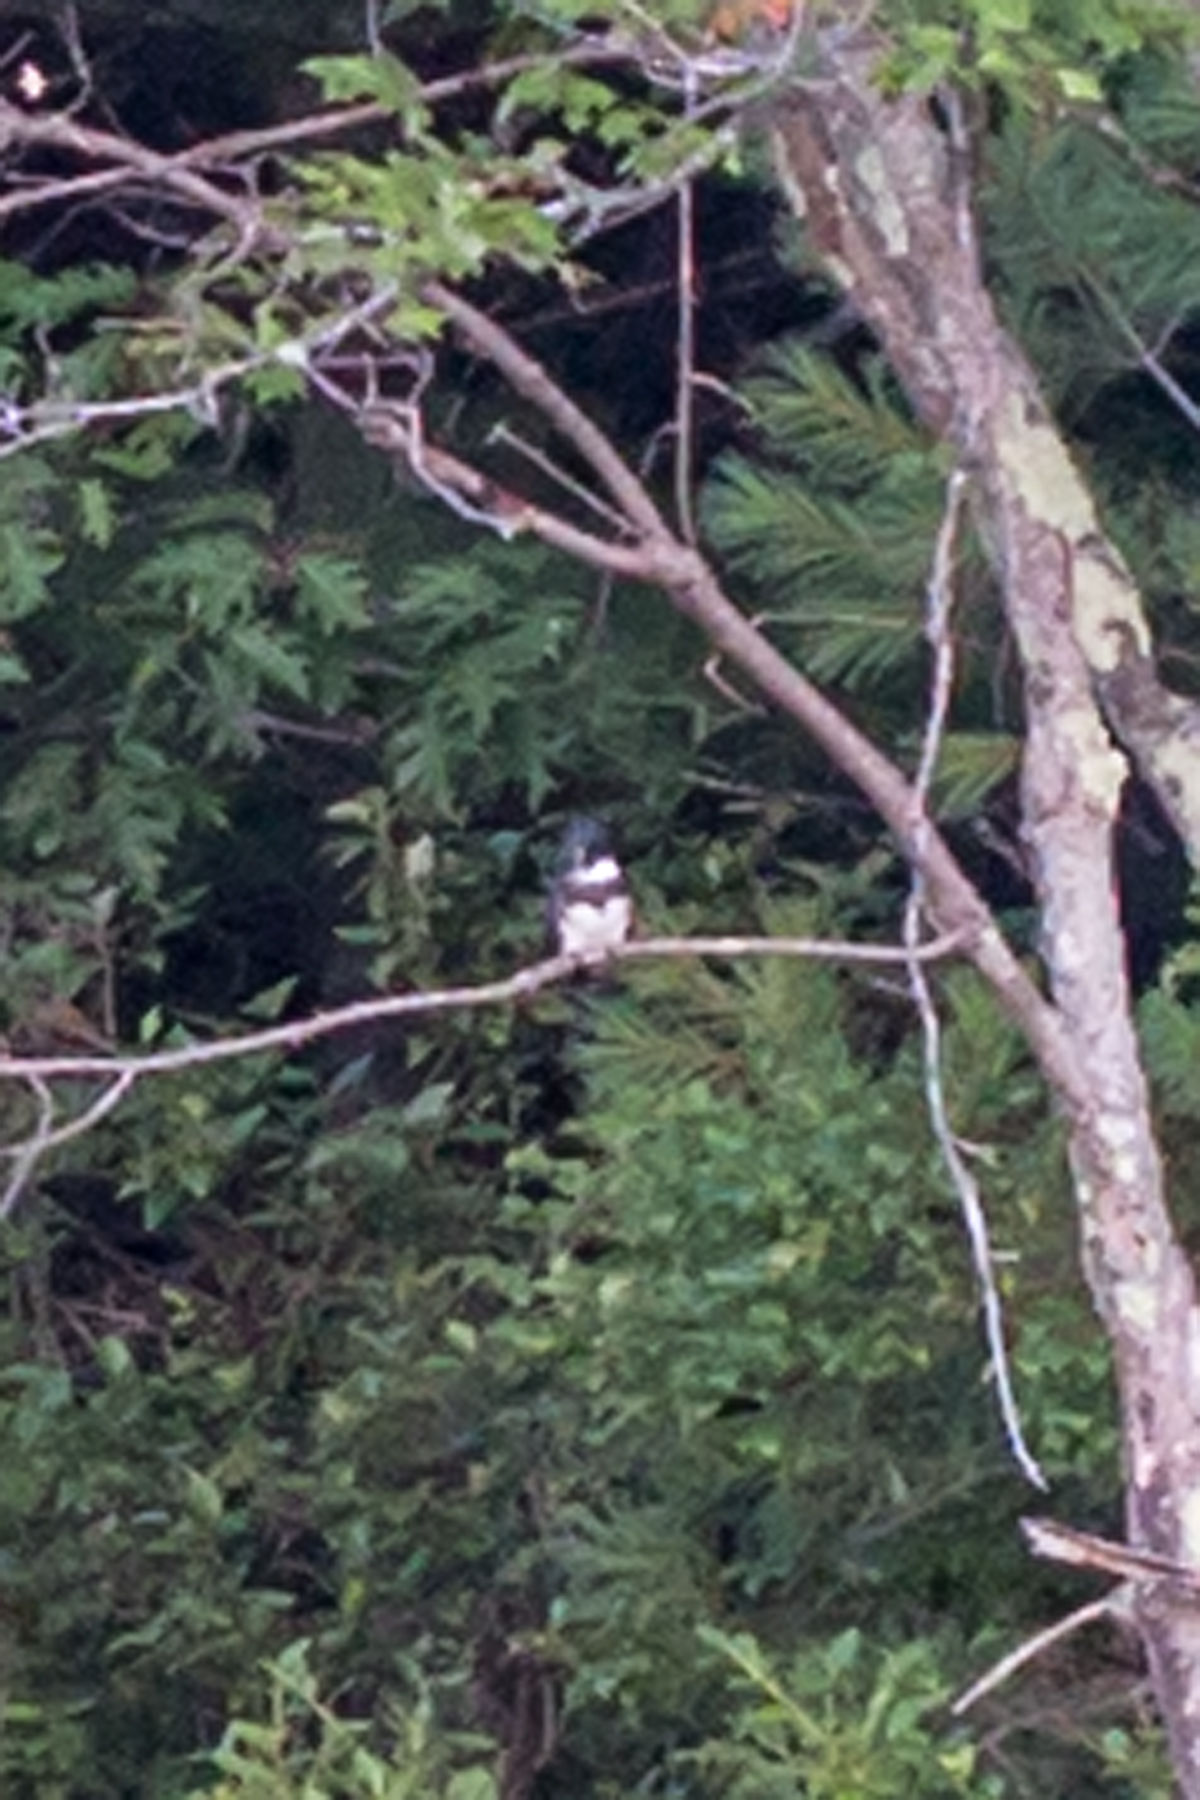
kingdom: Animalia
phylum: Chordata
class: Aves
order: Coraciiformes
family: Alcedinidae
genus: Megaceryle
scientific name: Megaceryle alcyon
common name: Belted kingfisher
